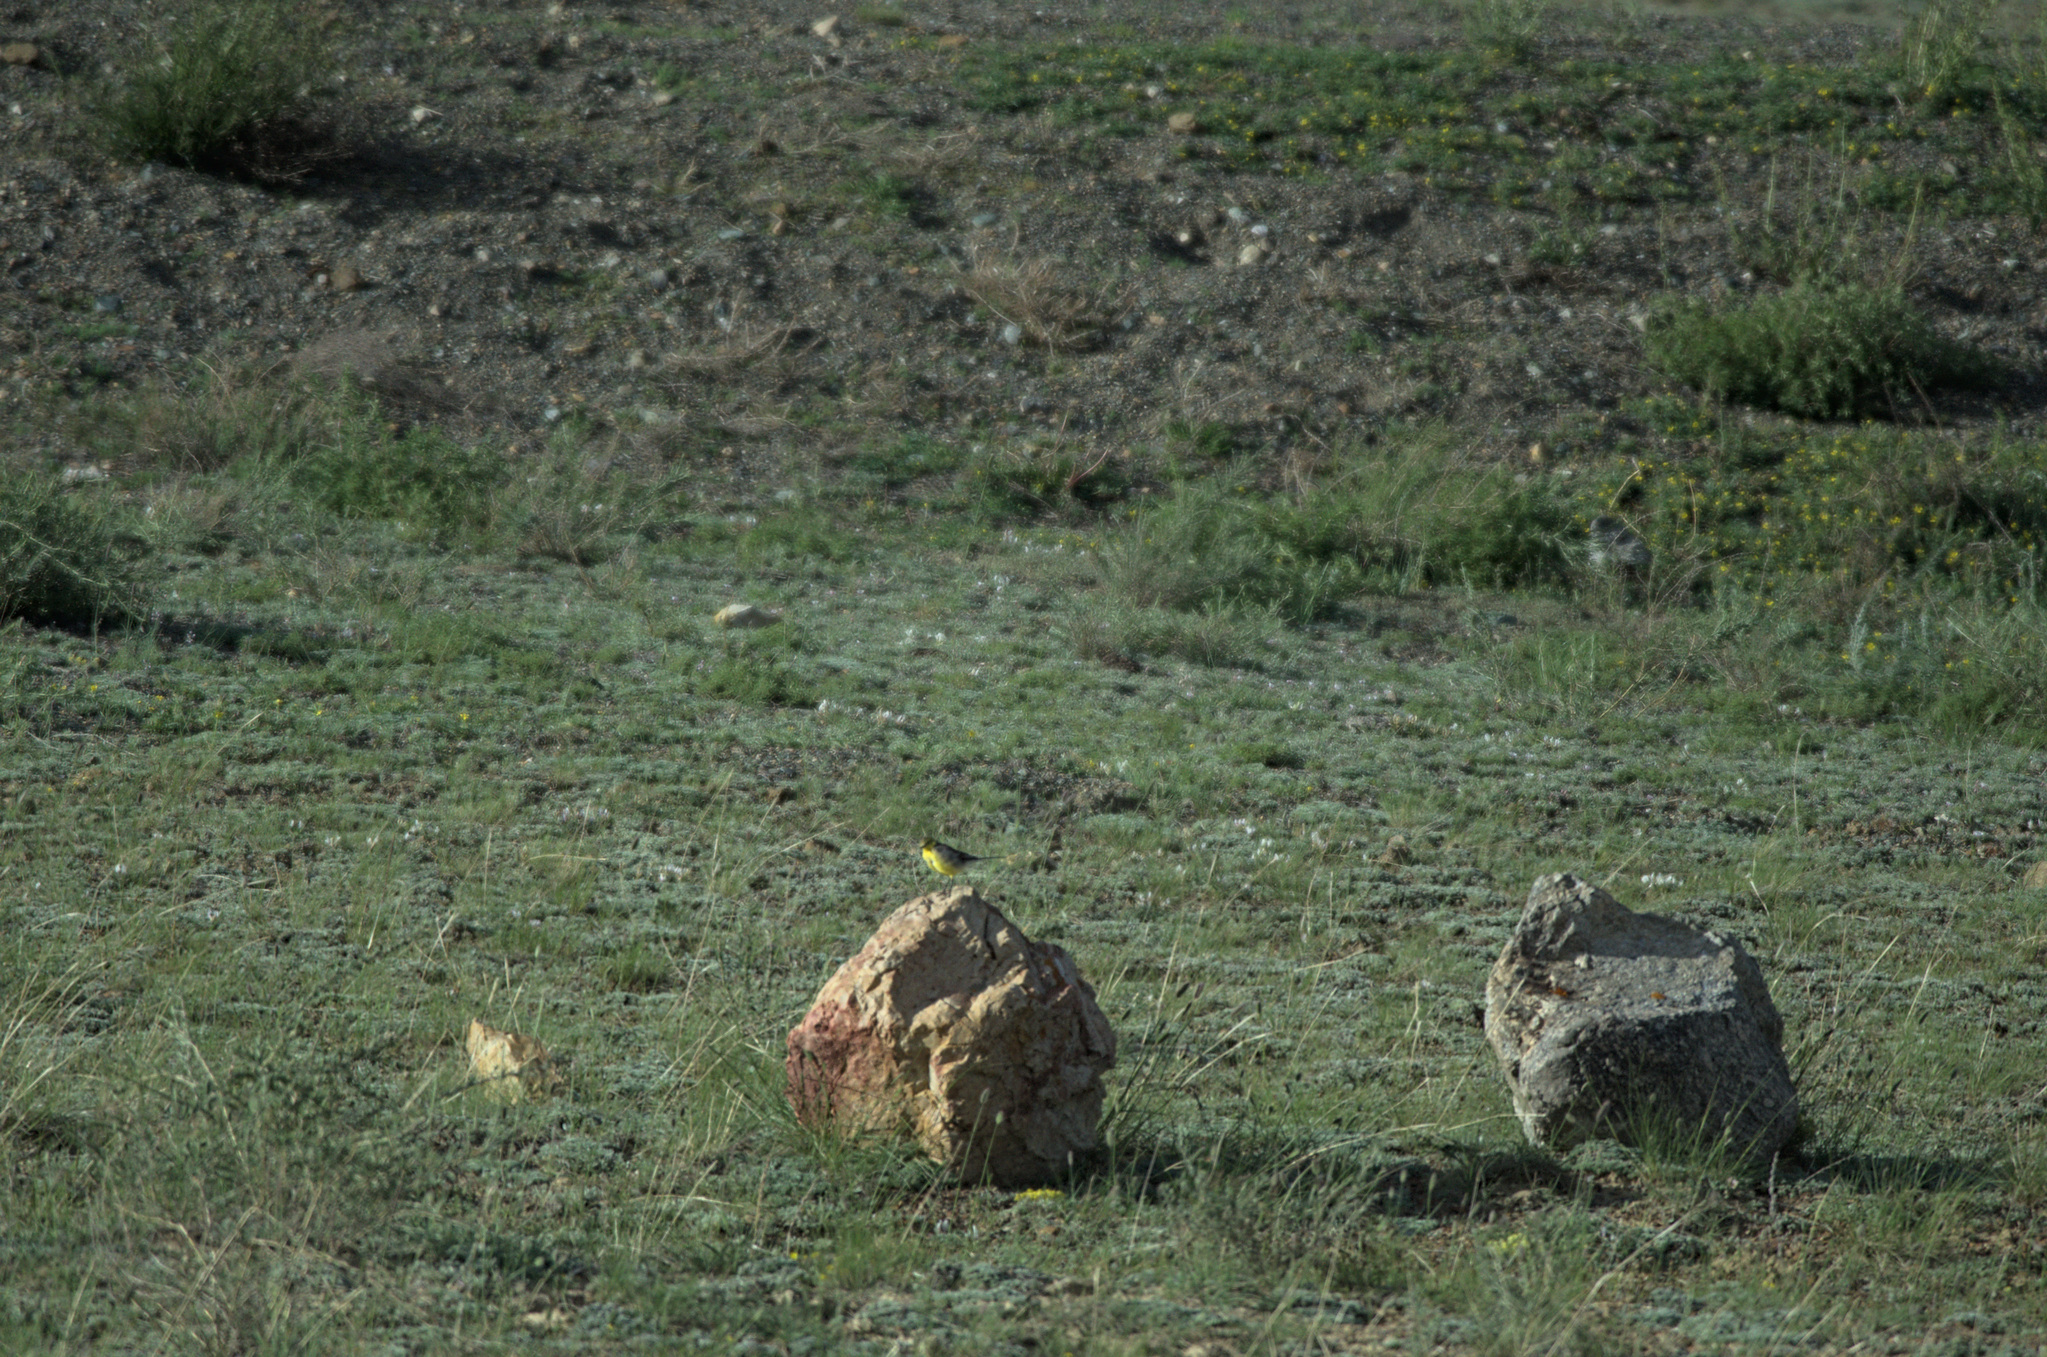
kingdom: Animalia
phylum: Chordata
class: Aves
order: Passeriformes
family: Motacillidae
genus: Motacilla
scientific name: Motacilla citreola
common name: Citrine wagtail
